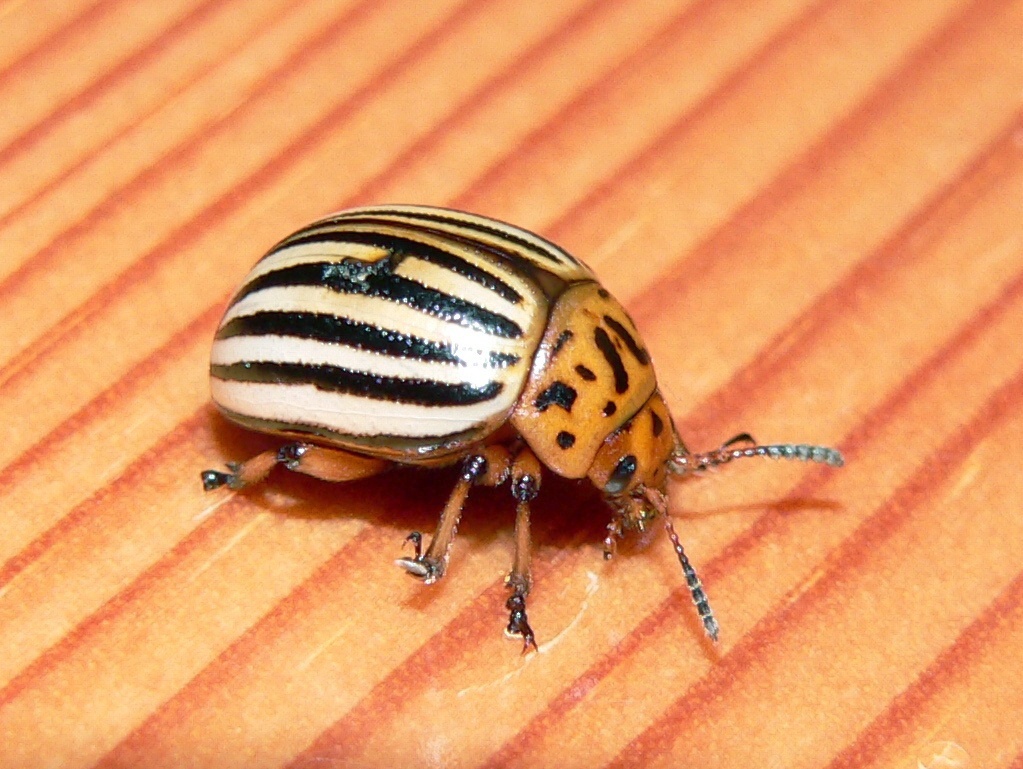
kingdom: Animalia
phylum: Arthropoda
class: Insecta
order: Coleoptera
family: Chrysomelidae
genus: Leptinotarsa
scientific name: Leptinotarsa decemlineata
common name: Colorado potato beetle
